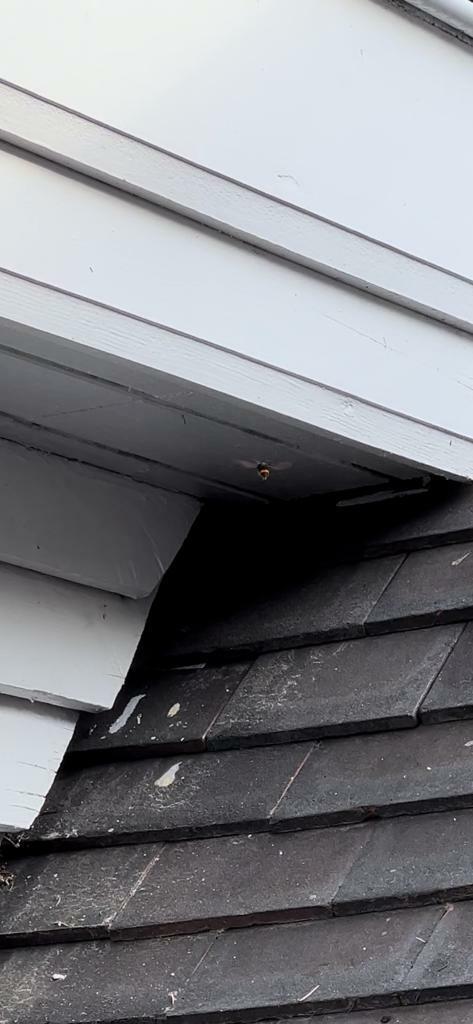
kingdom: Animalia
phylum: Arthropoda
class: Insecta
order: Hymenoptera
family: Vespidae
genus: Vespa
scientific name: Vespa velutina
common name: Asian hornet
